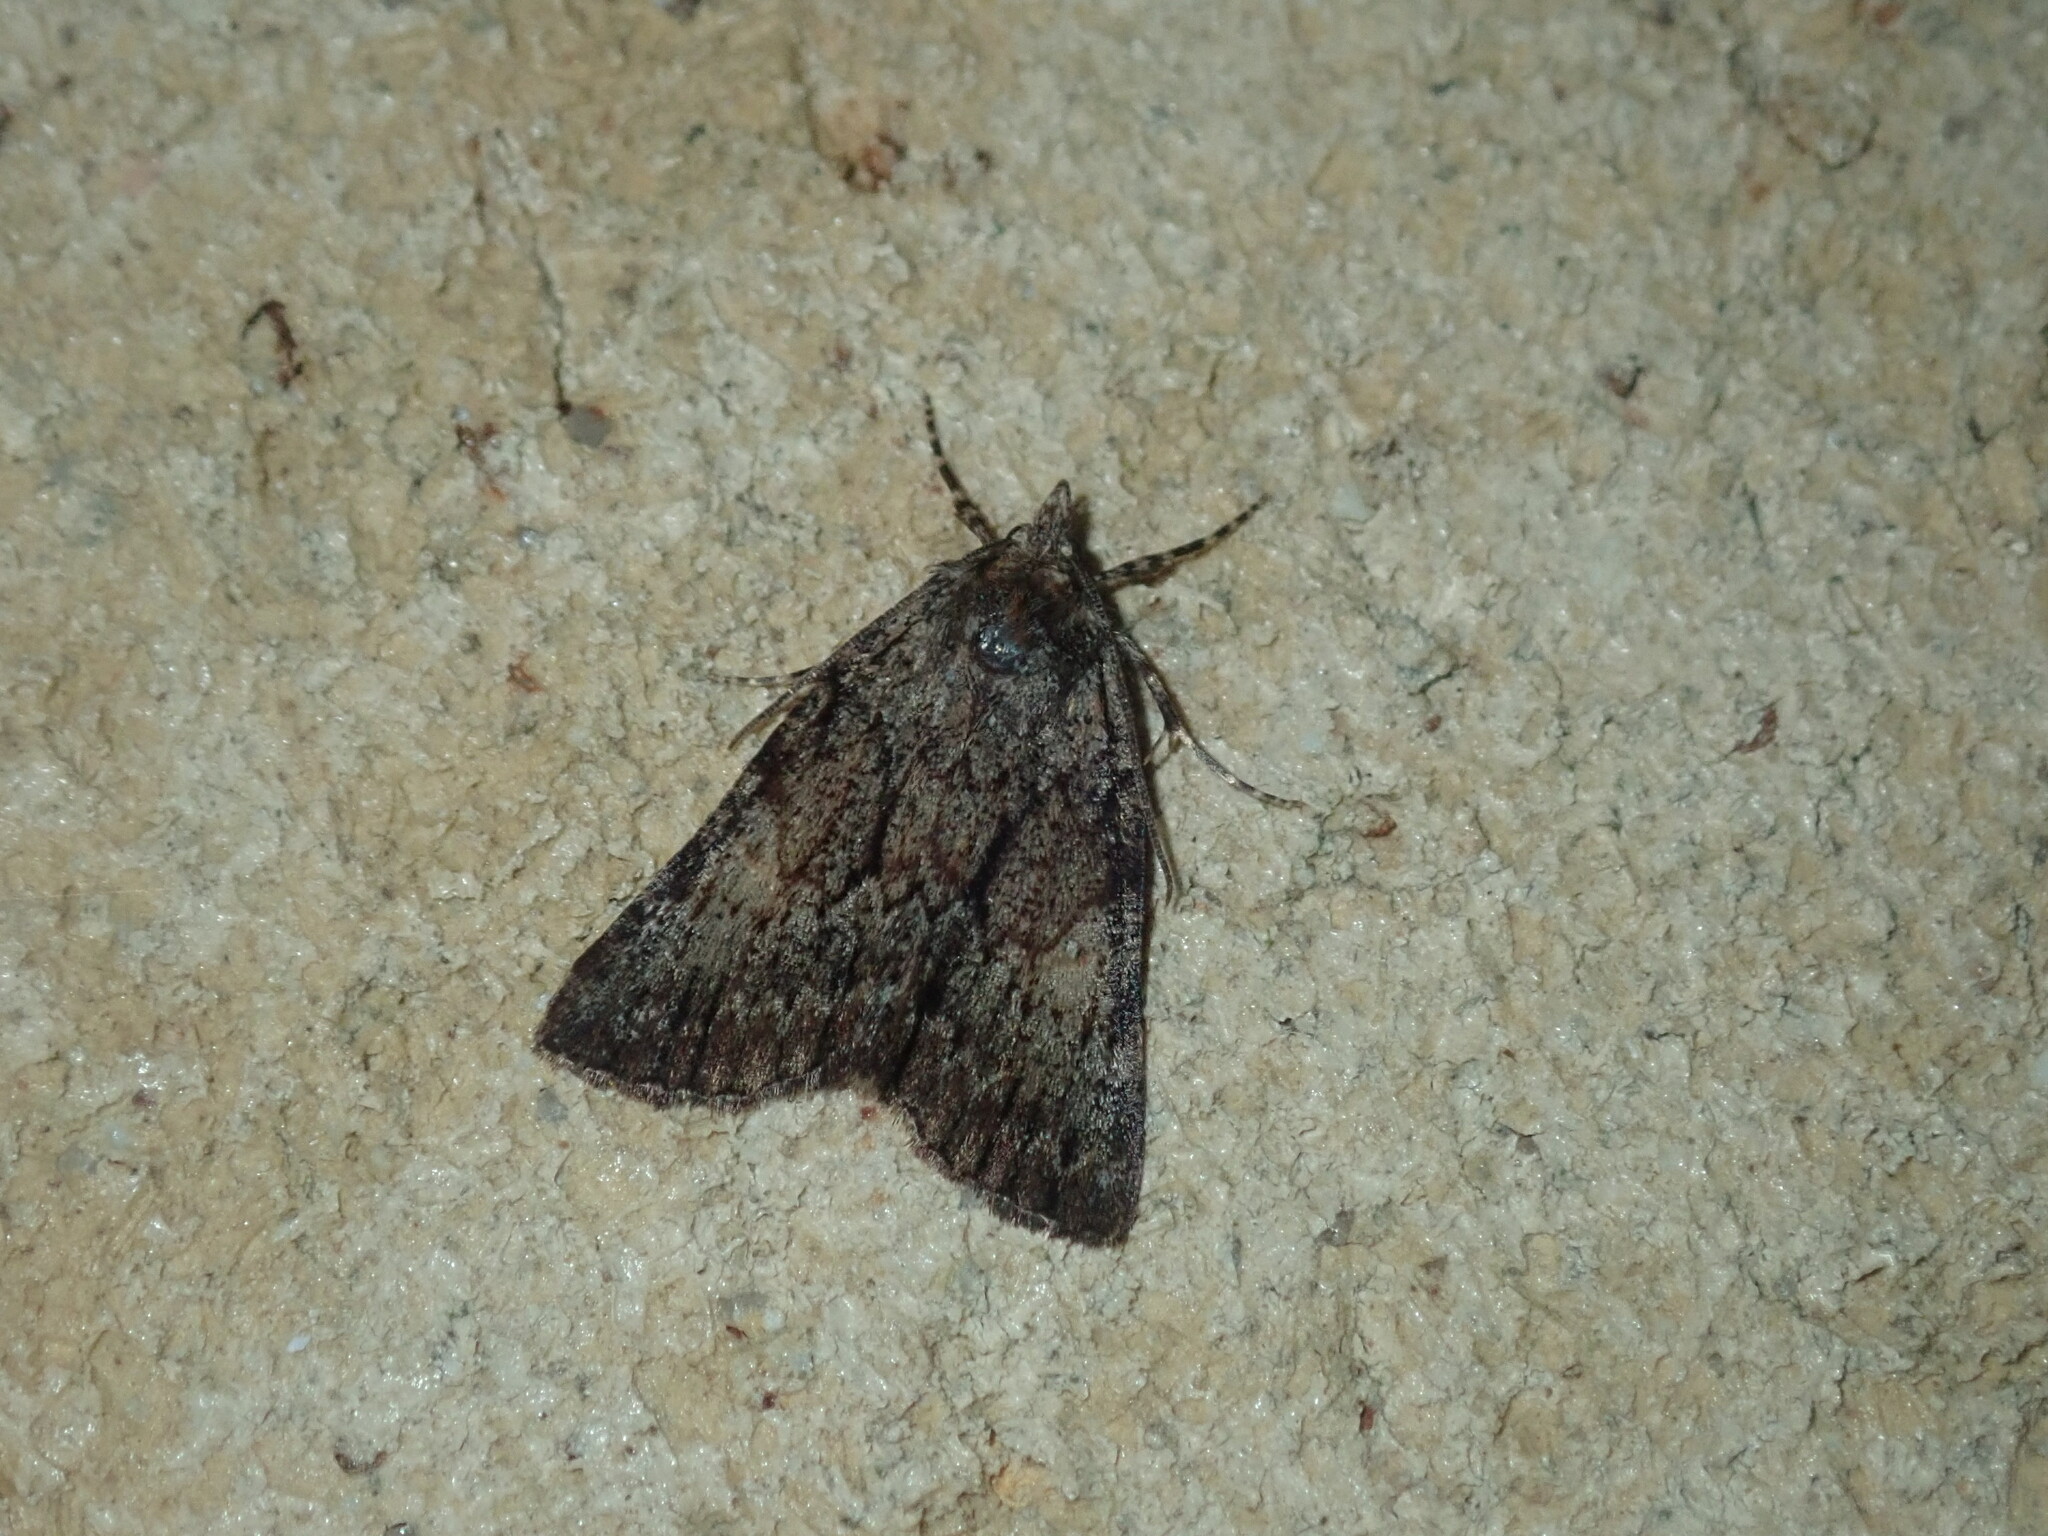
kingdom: Animalia
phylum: Arthropoda
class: Insecta
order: Lepidoptera
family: Geometridae
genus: Smyriodes
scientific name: Smyriodes
